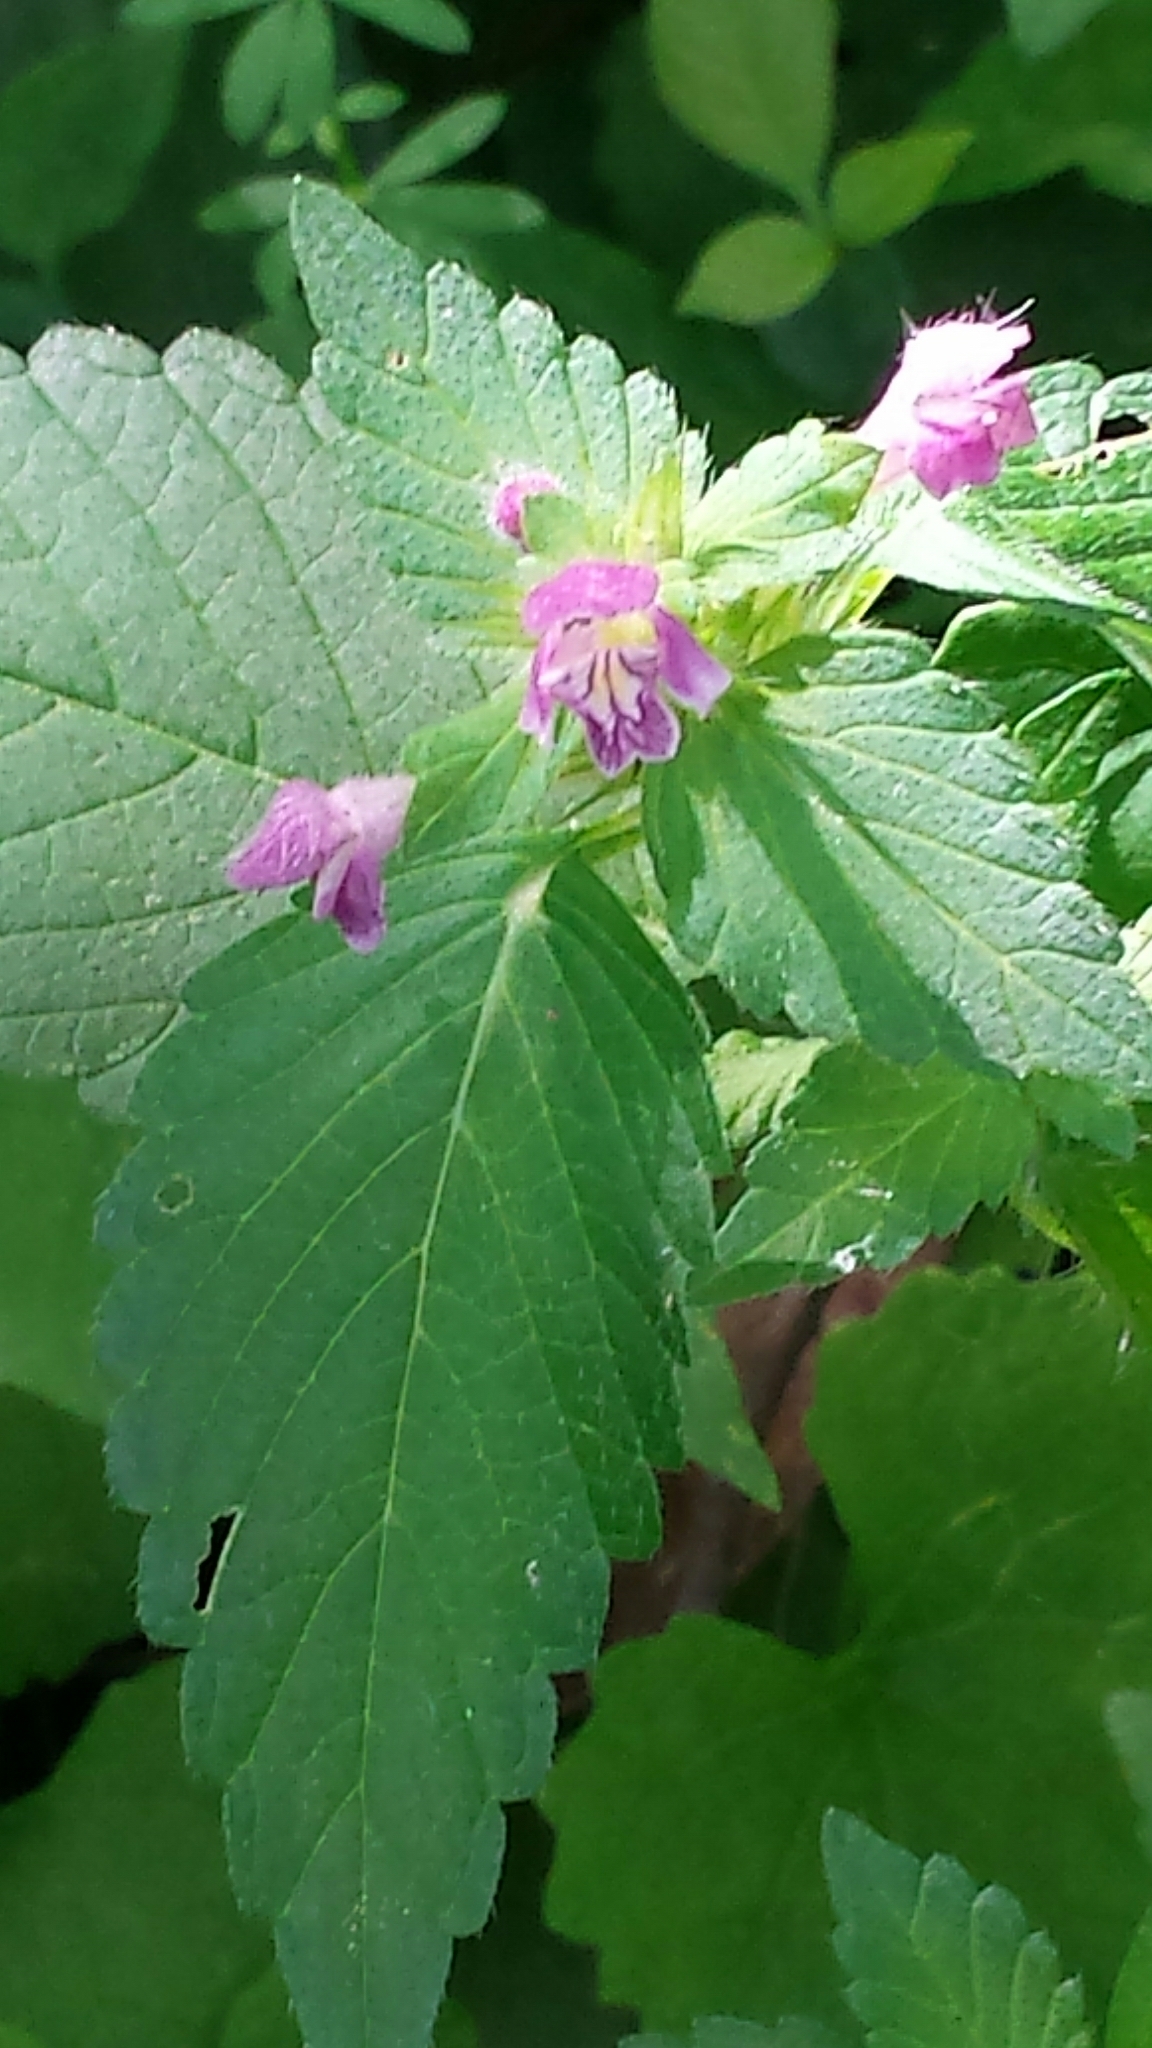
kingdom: Plantae
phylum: Tracheophyta
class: Magnoliopsida
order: Lamiales
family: Lamiaceae
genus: Galeopsis
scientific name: Galeopsis tetrahit
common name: Common hemp-nettle
